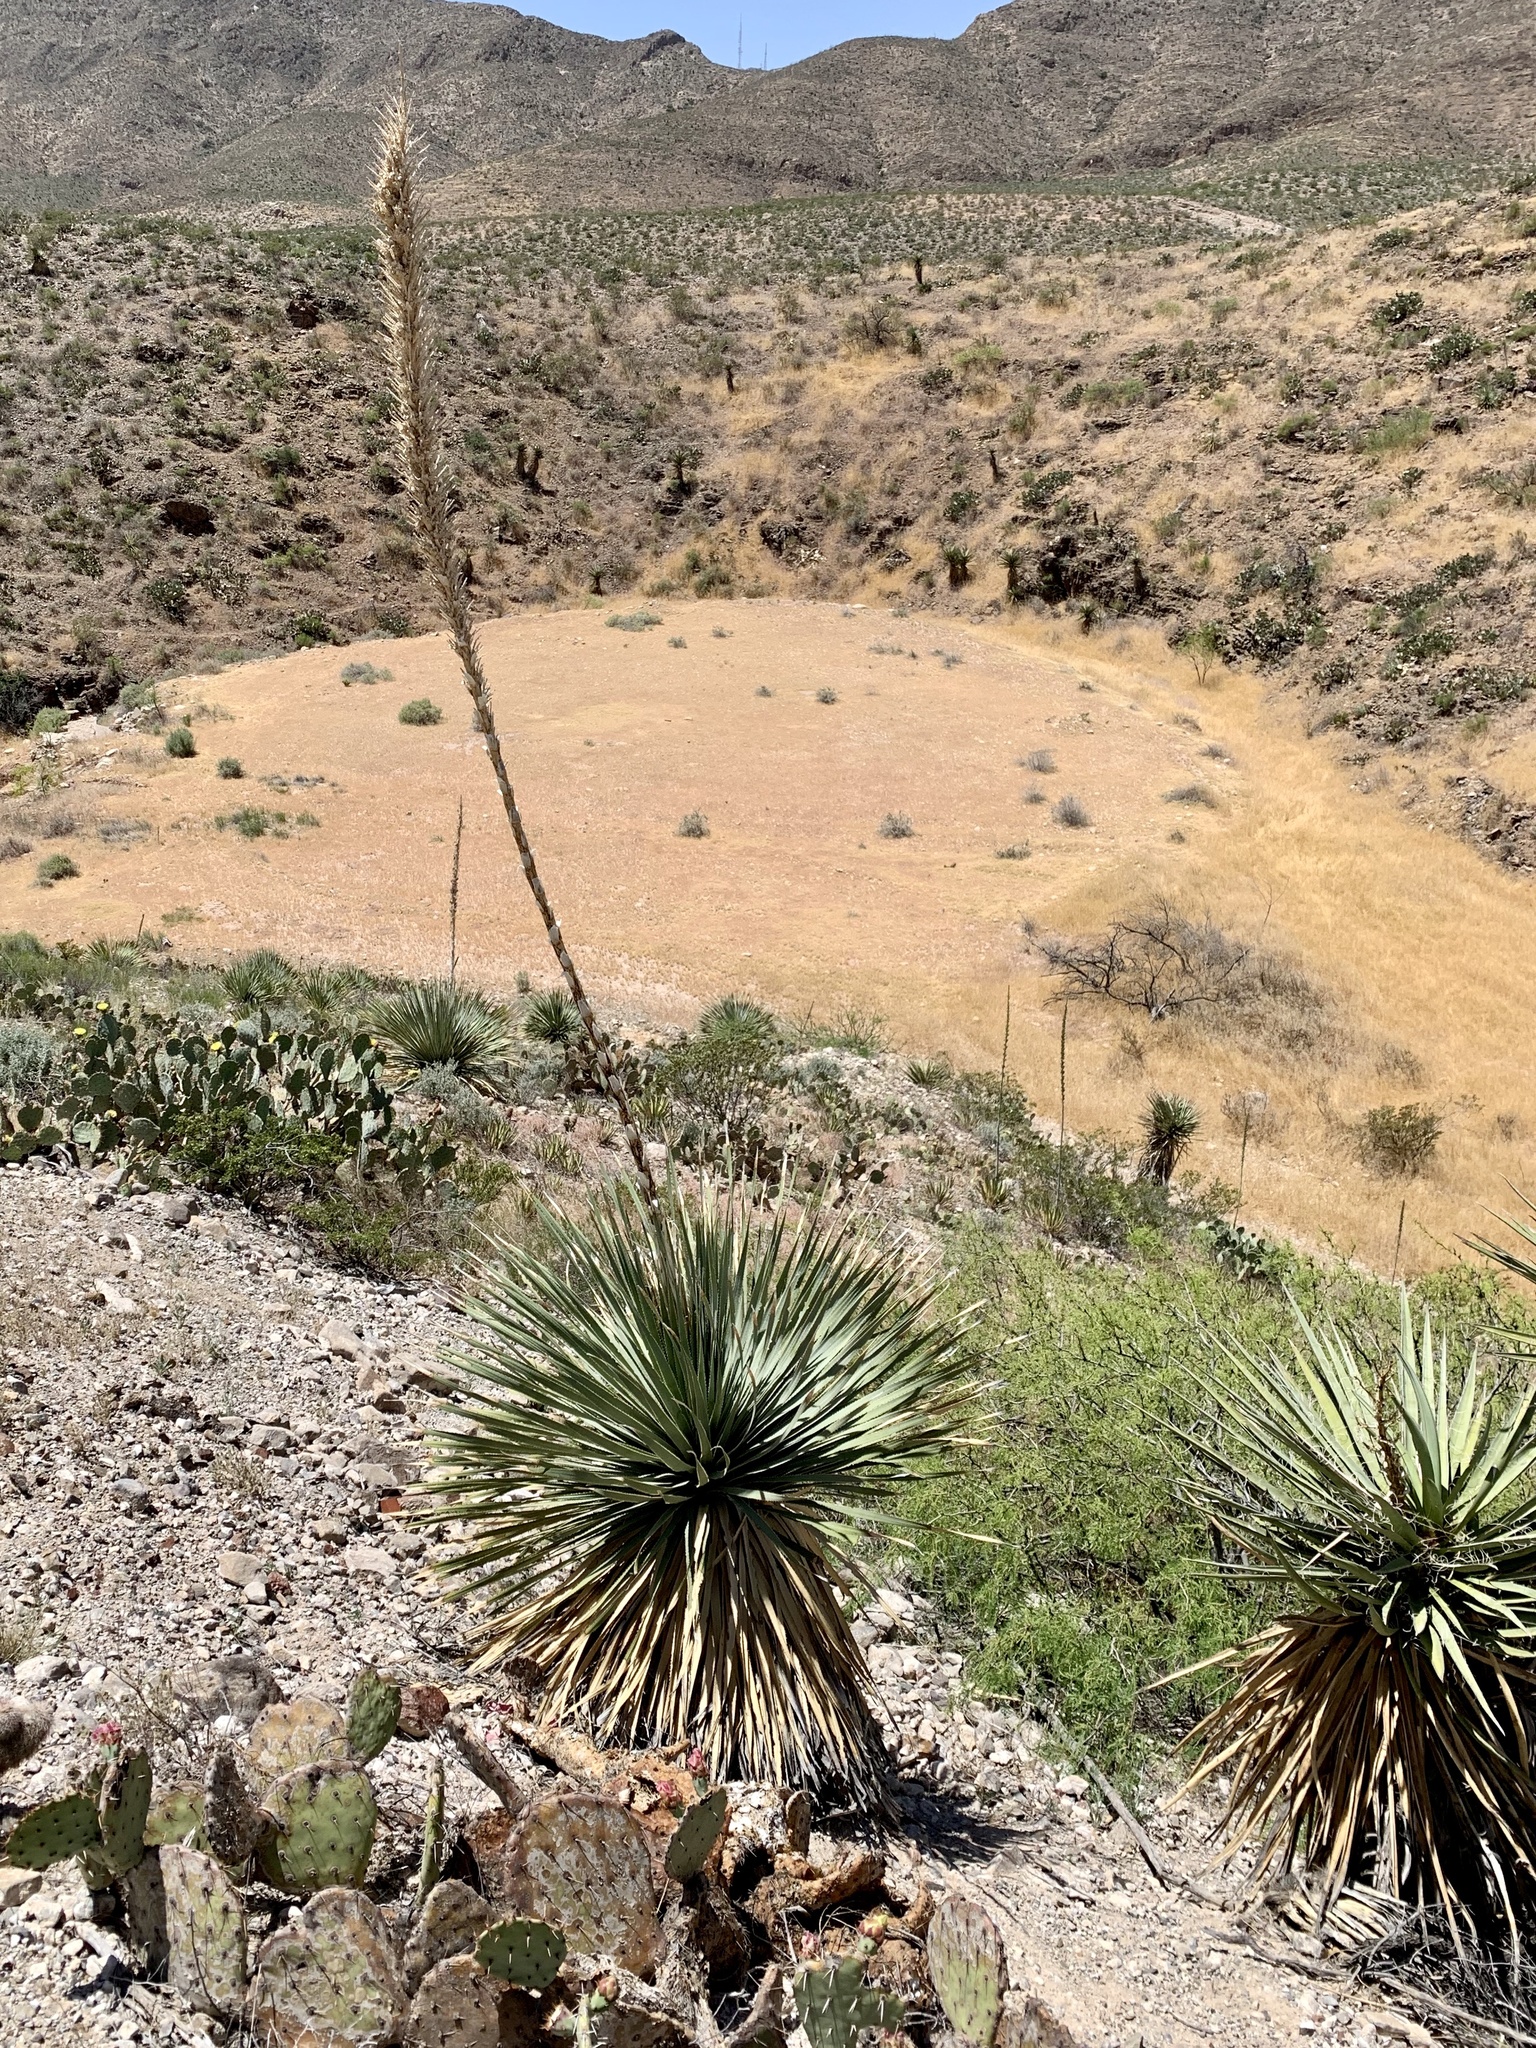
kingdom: Plantae
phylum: Tracheophyta
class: Liliopsida
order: Asparagales
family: Asparagaceae
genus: Dasylirion
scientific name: Dasylirion wheeleri
